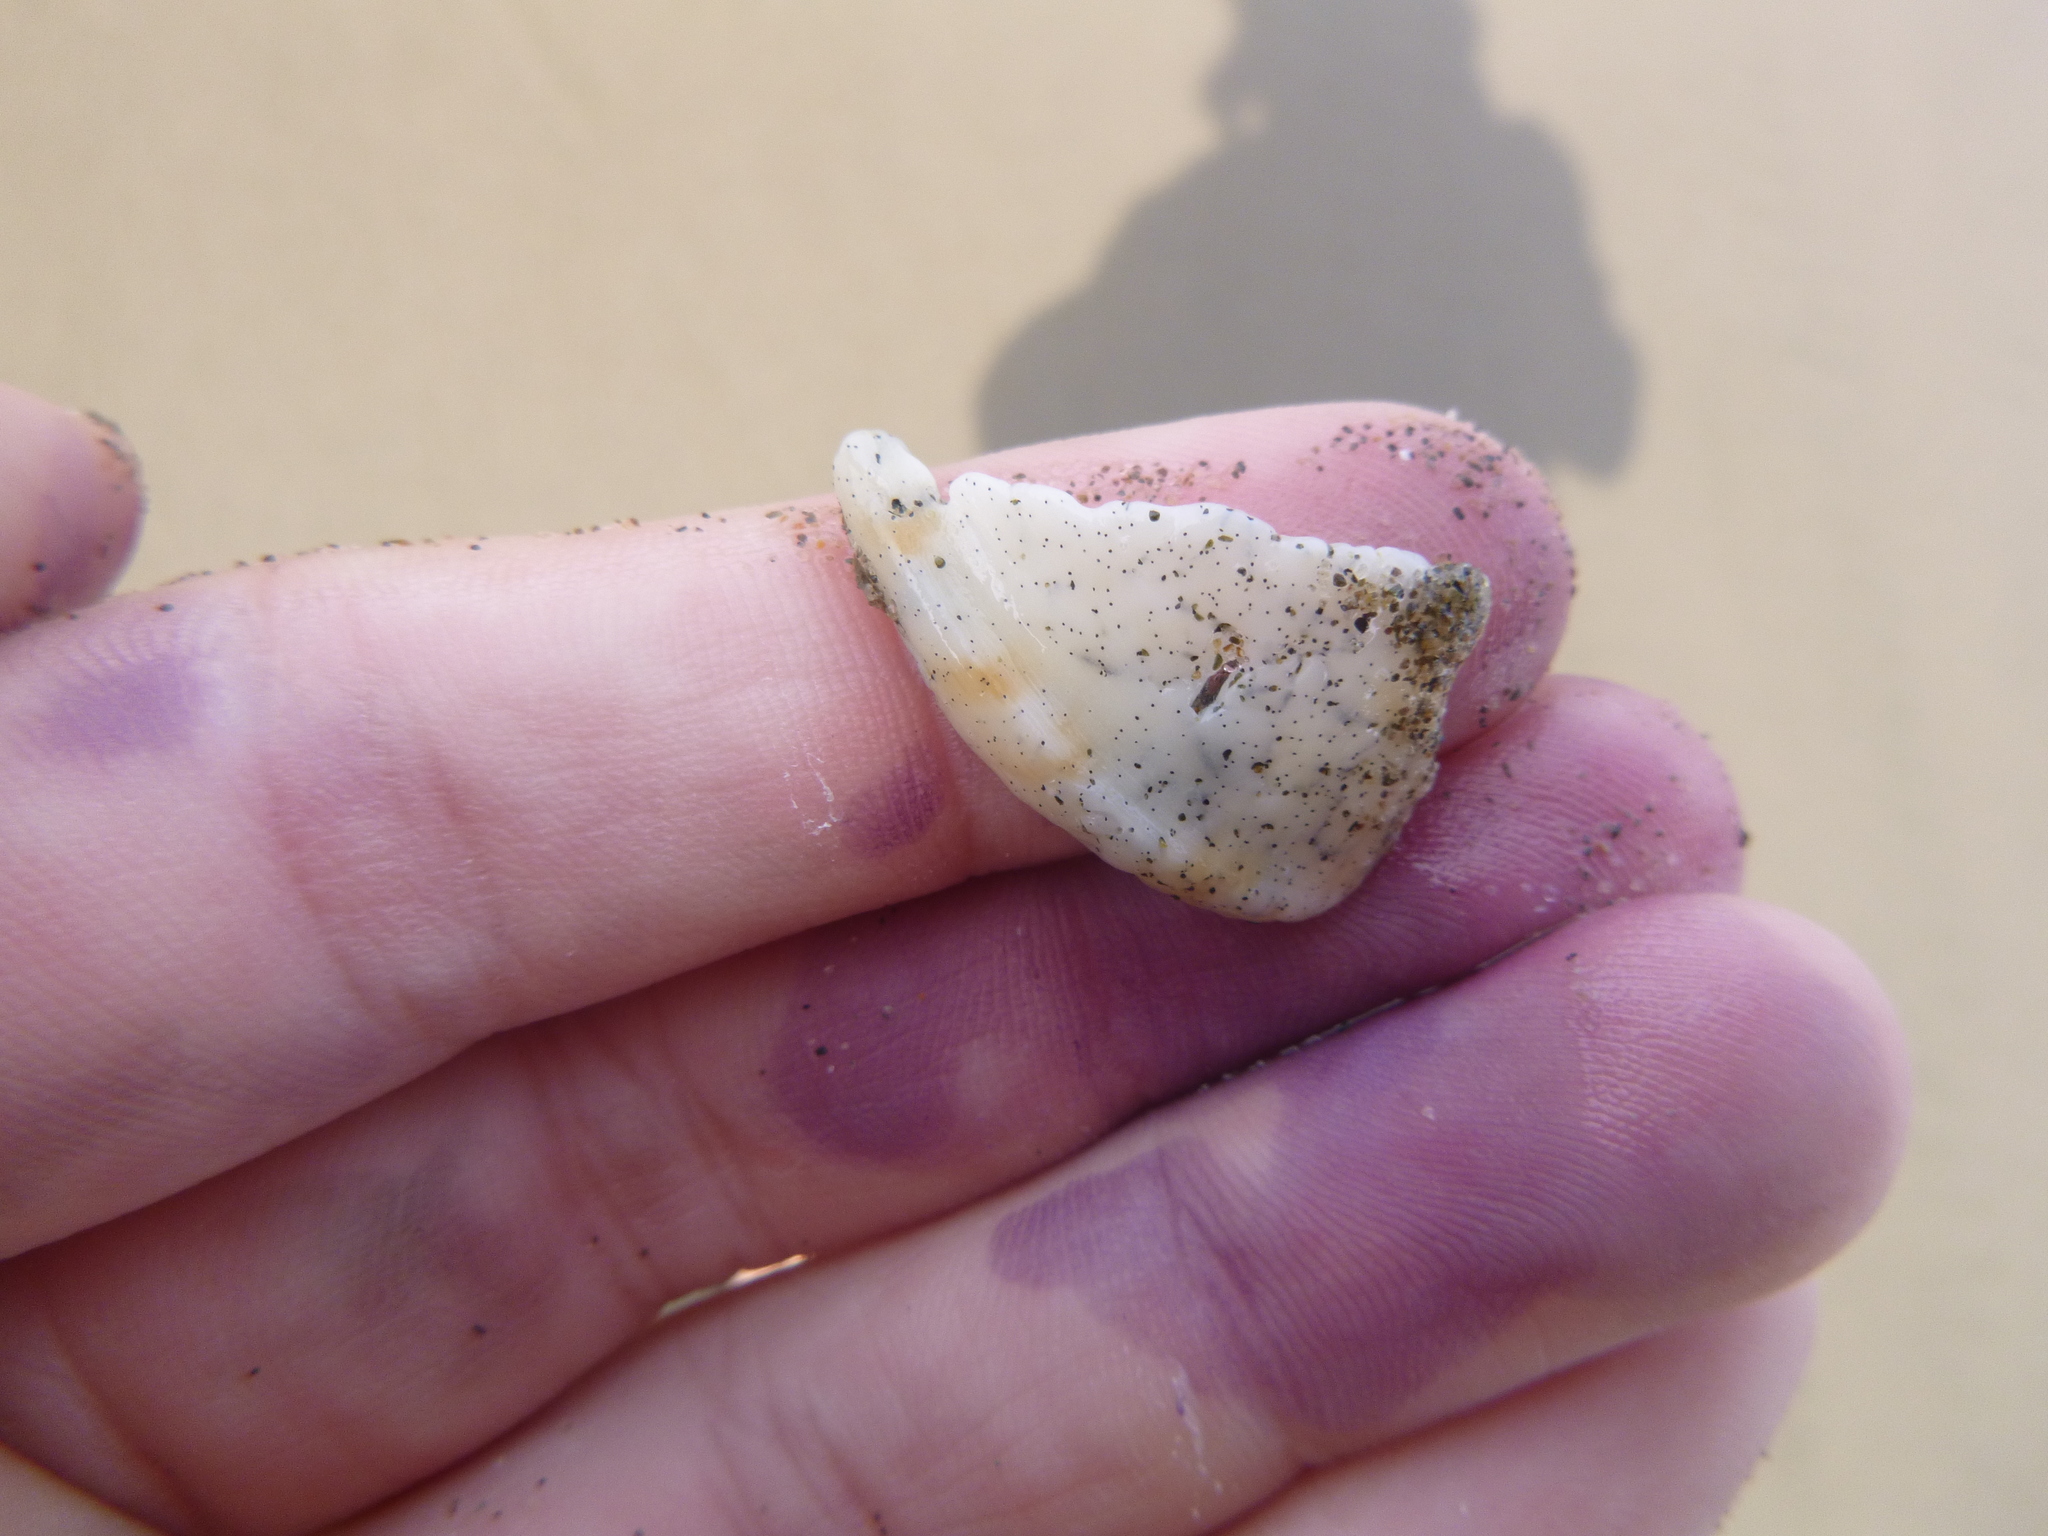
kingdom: Animalia
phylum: Mollusca
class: Gastropoda
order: Littorinimorpha
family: Cassidae
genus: Semicassis
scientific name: Semicassis pyrum
